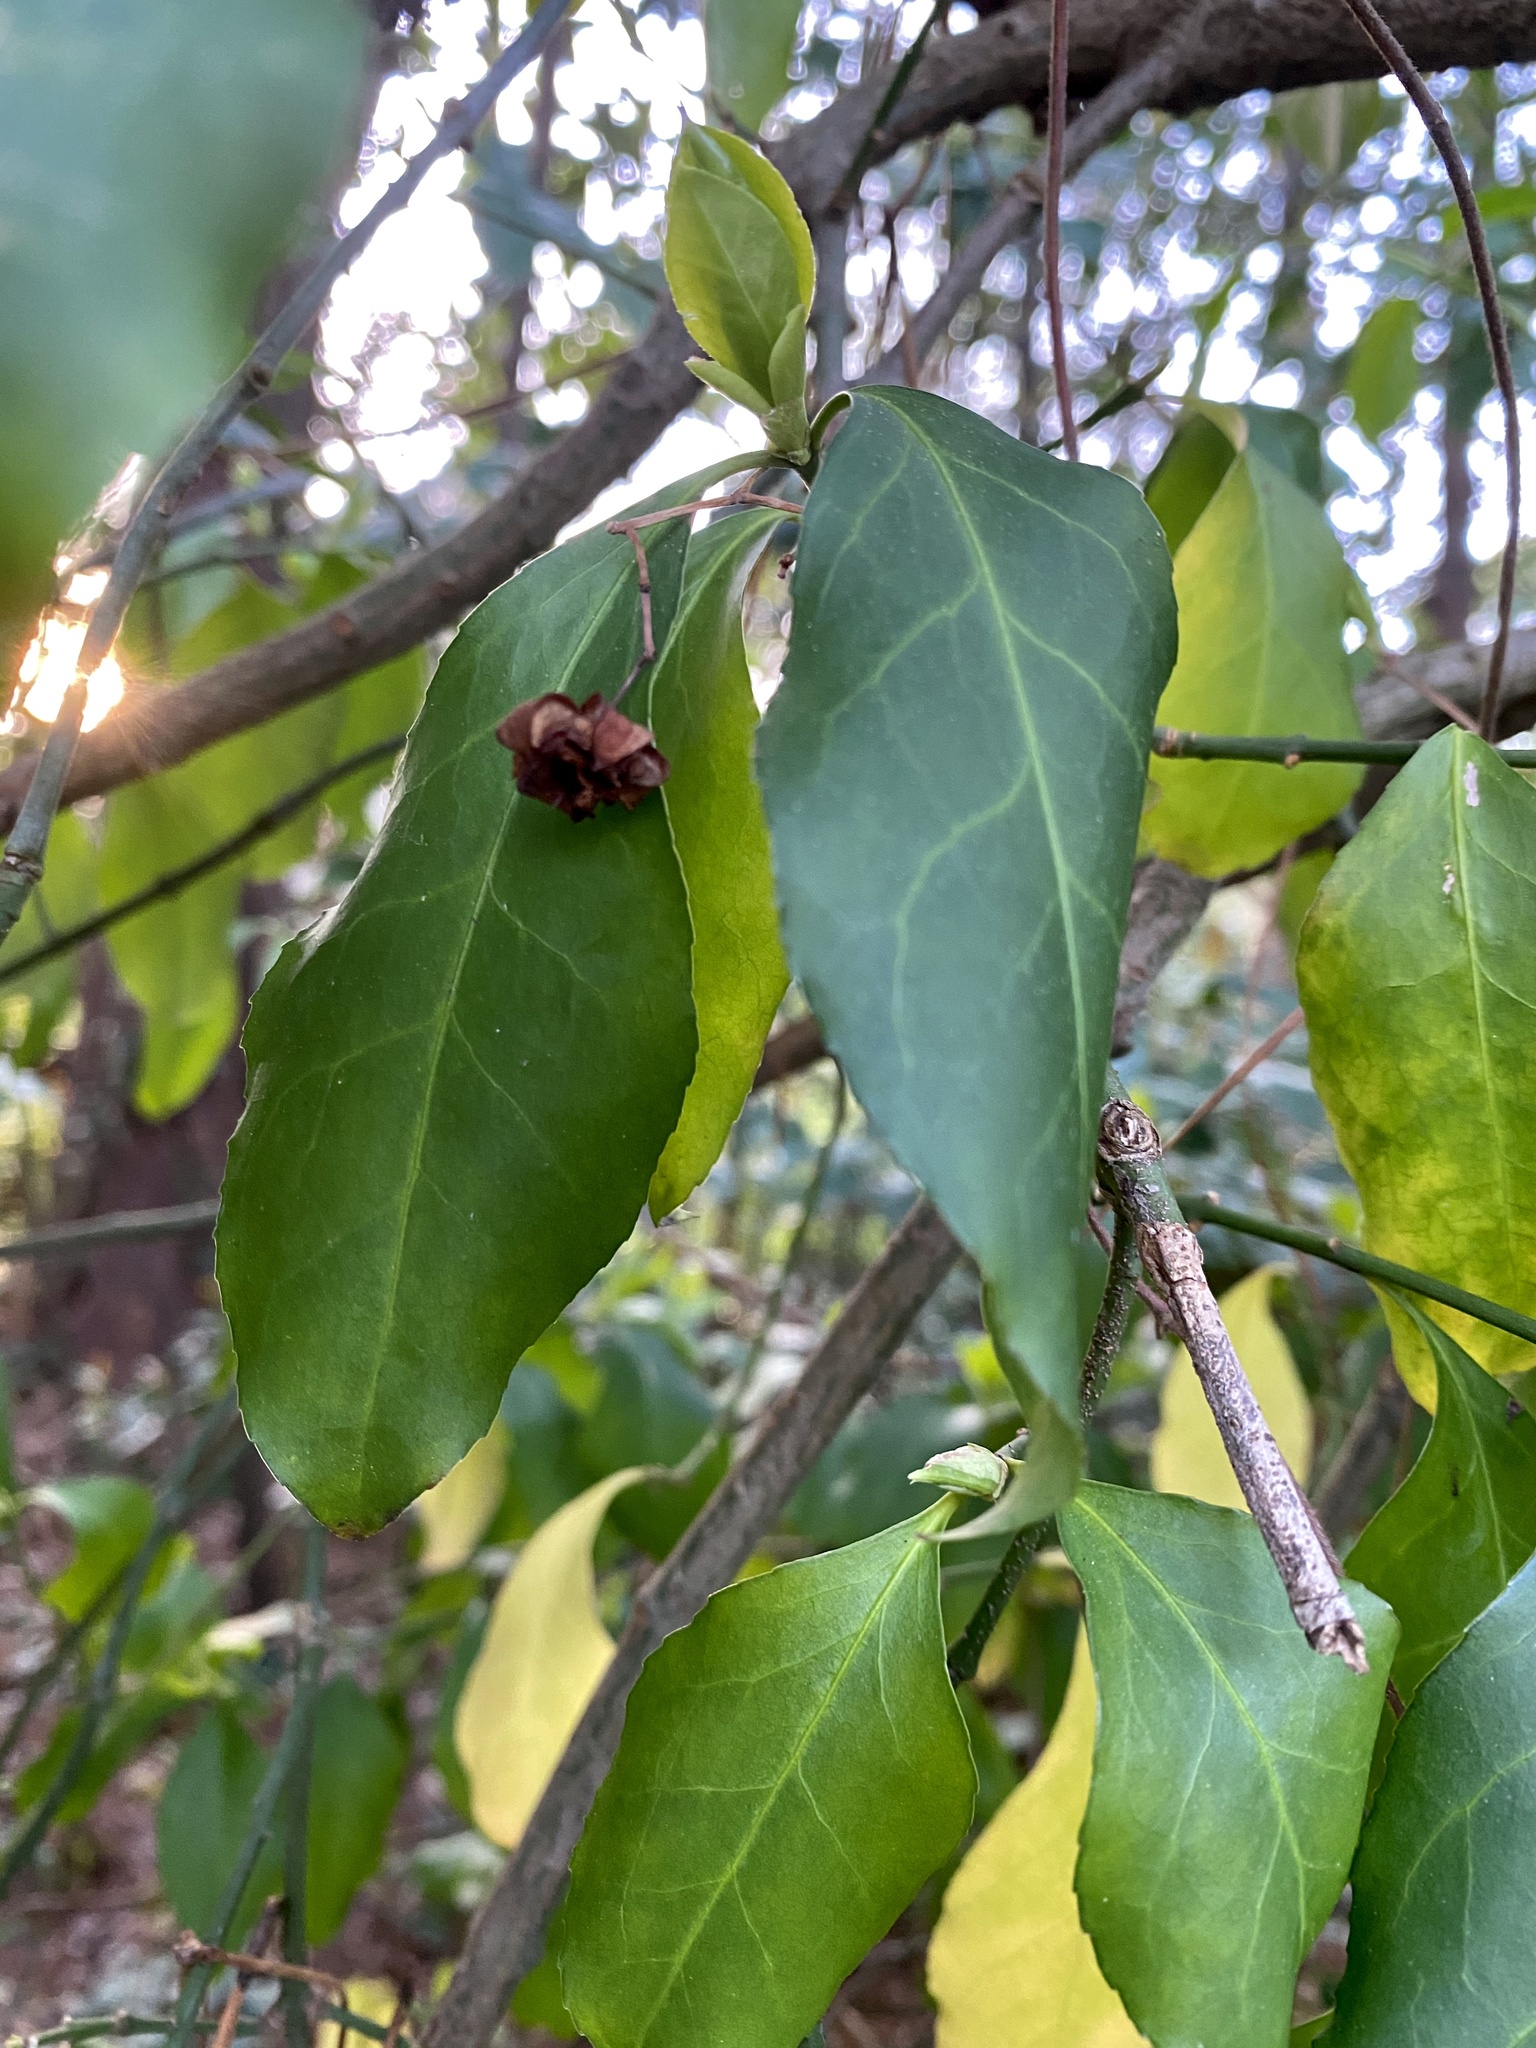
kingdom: Plantae
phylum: Tracheophyta
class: Magnoliopsida
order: Celastrales
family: Celastraceae
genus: Euonymus
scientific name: Euonymus fortunei
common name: Climbing euonymus
